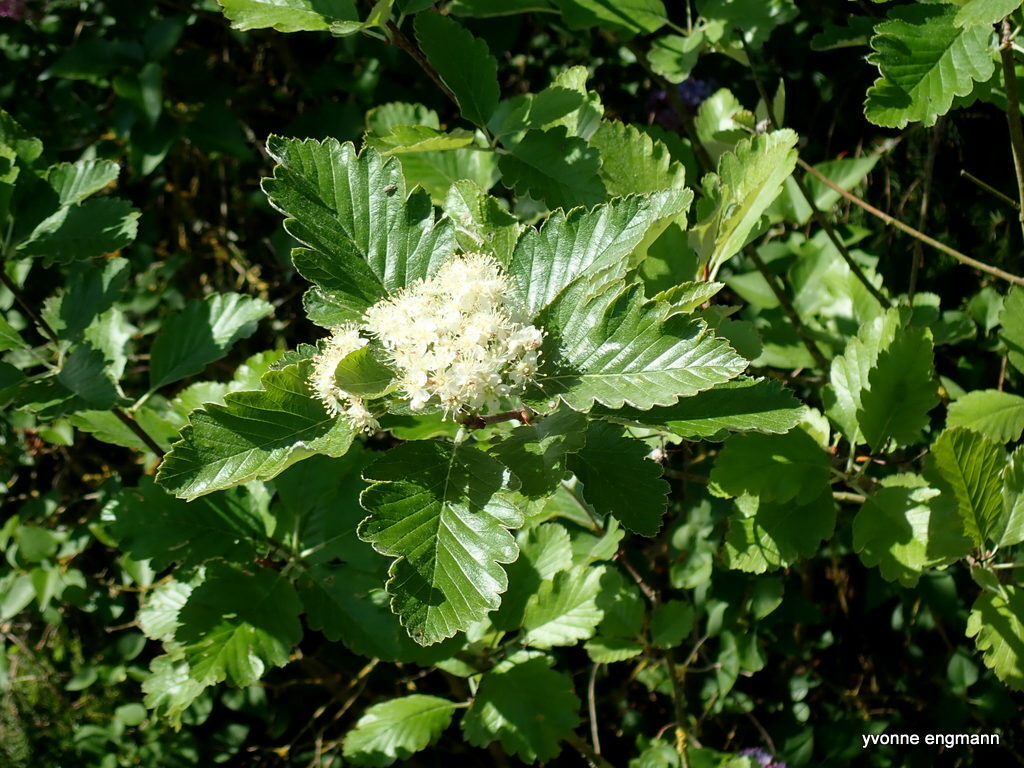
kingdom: Plantae
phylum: Tracheophyta
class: Magnoliopsida
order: Rosales
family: Rosaceae
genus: Scandosorbus
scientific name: Scandosorbus intermedia
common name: Swedish whitebeam
